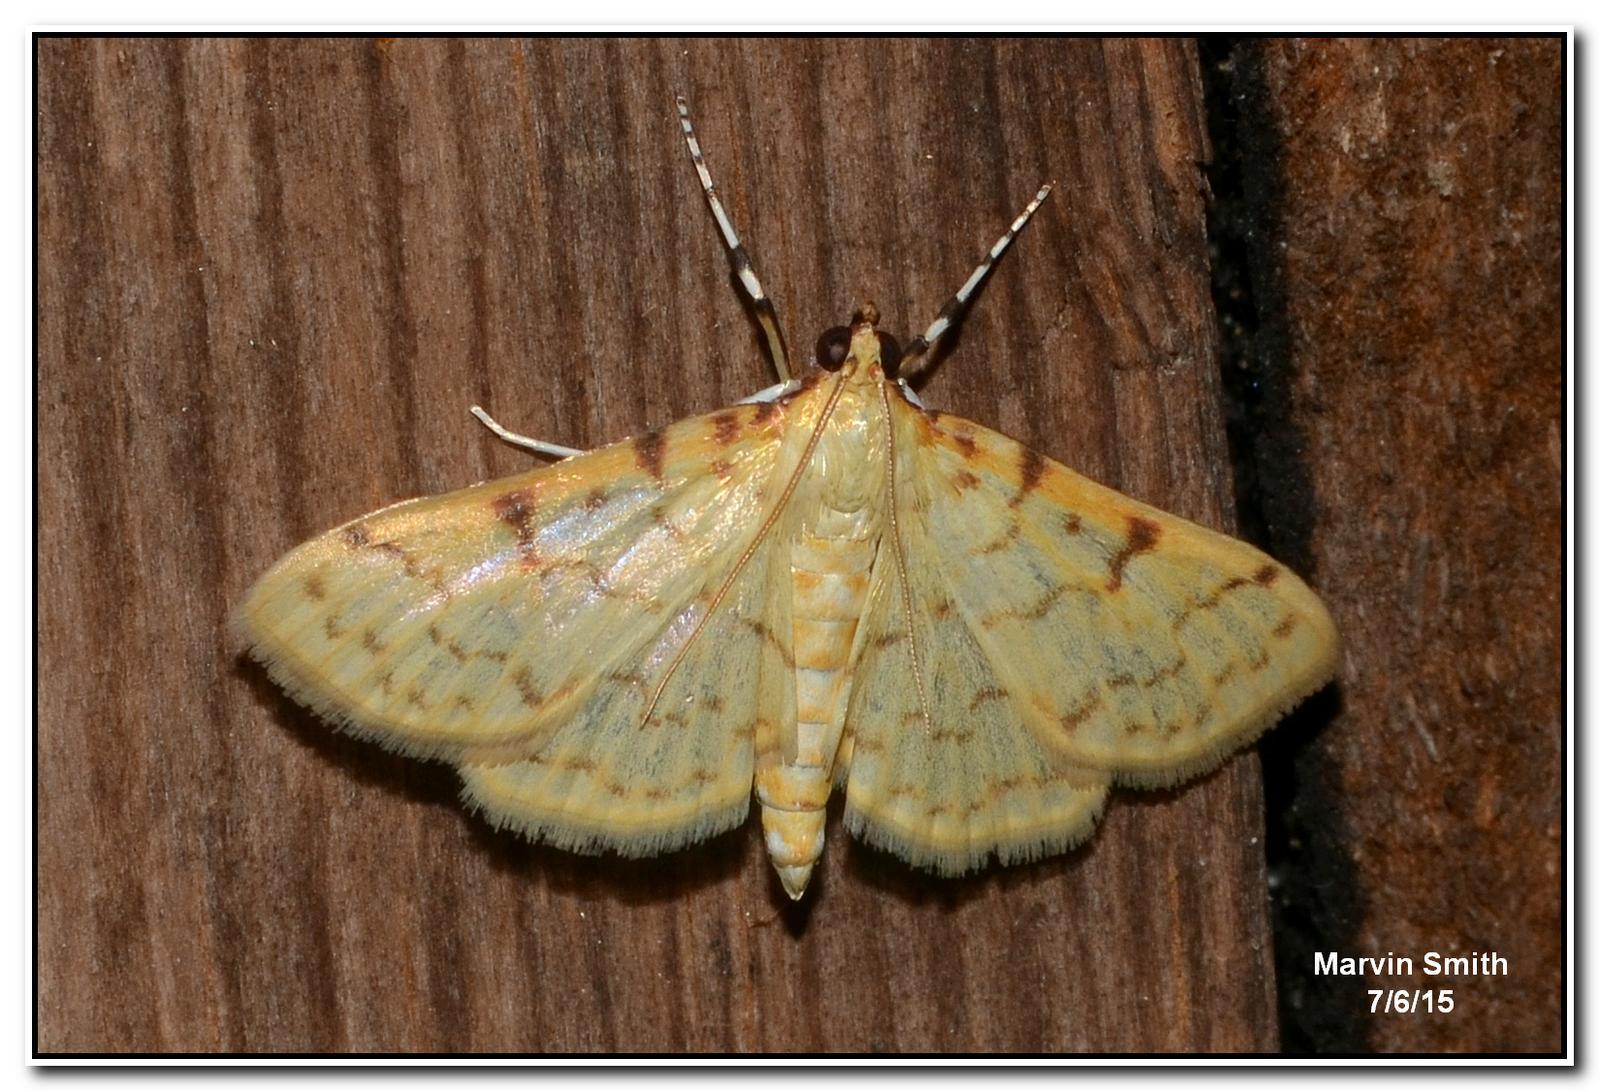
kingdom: Animalia
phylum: Arthropoda
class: Insecta
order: Lepidoptera
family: Crambidae
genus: Polygrammodes
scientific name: Polygrammodes flavidalis
